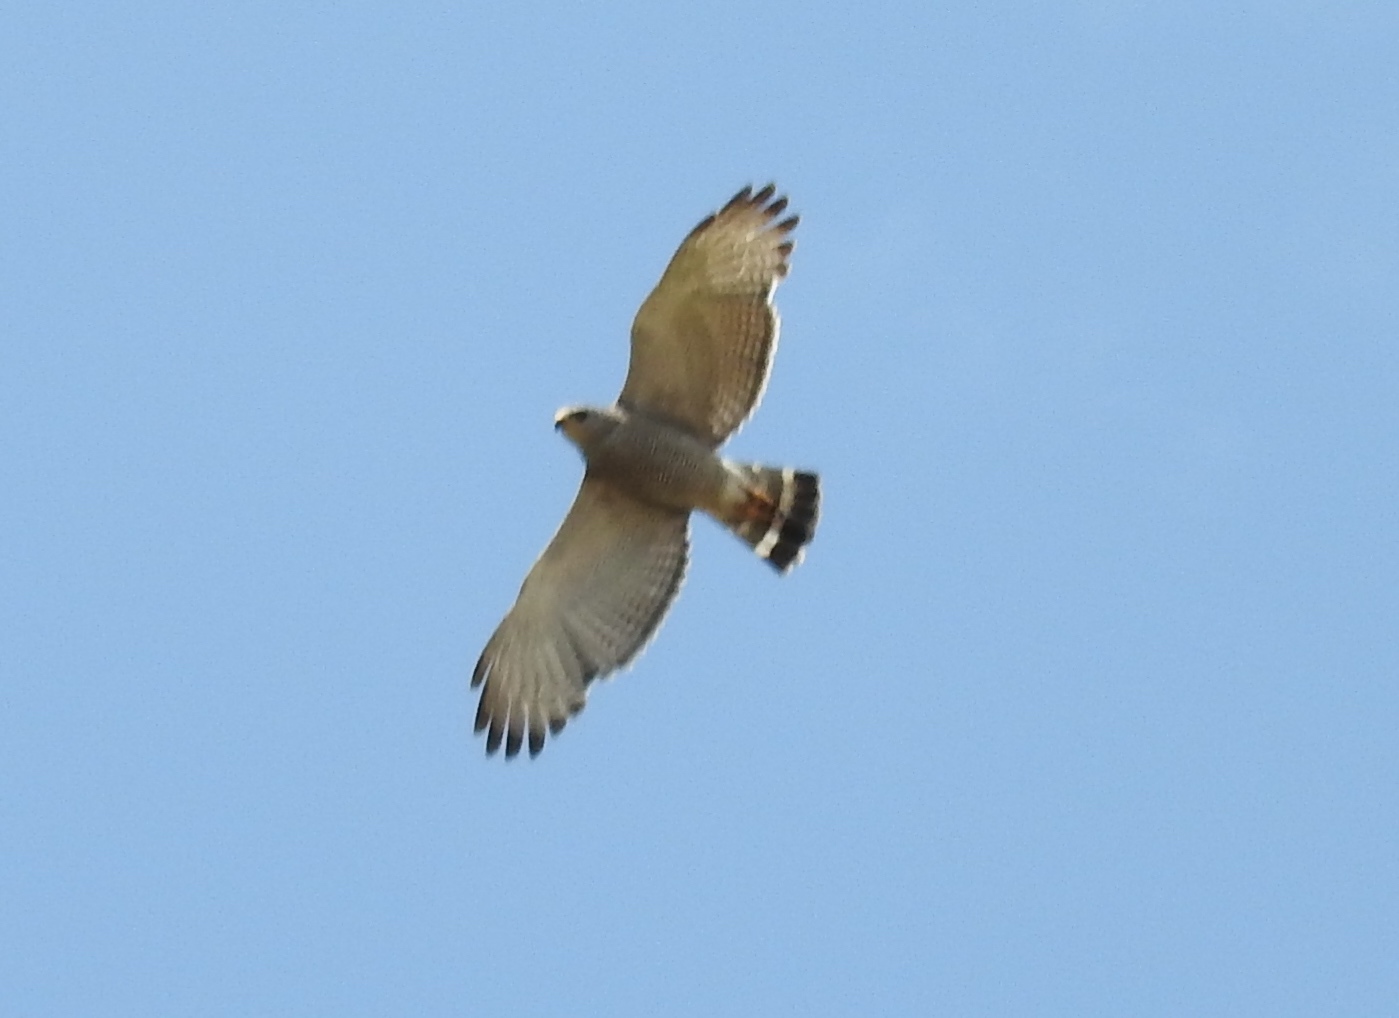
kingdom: Animalia
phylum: Chordata
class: Aves
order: Accipitriformes
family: Accipitridae
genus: Buteo
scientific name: Buteo nitidus
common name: Grey-lined hawk
